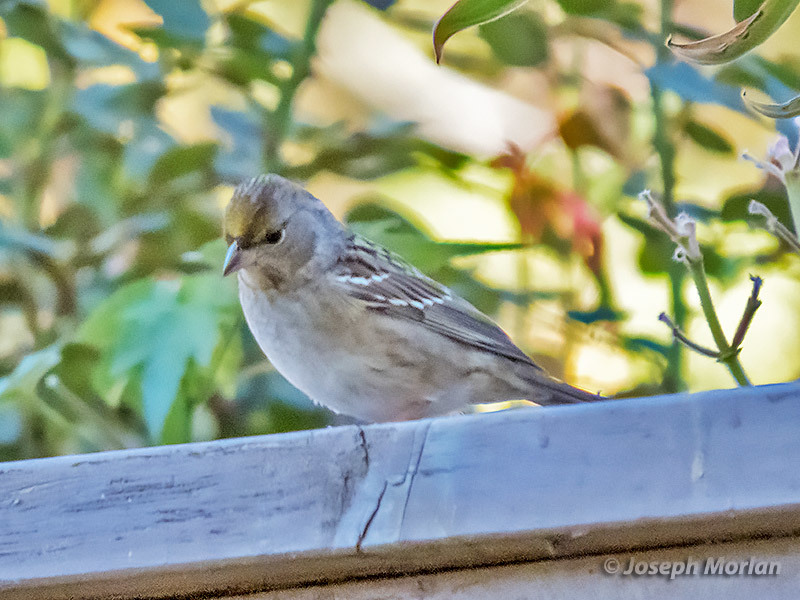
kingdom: Animalia
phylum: Chordata
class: Aves
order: Passeriformes
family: Passerellidae
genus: Zonotrichia
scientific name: Zonotrichia atricapilla
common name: Golden-crowned sparrow
